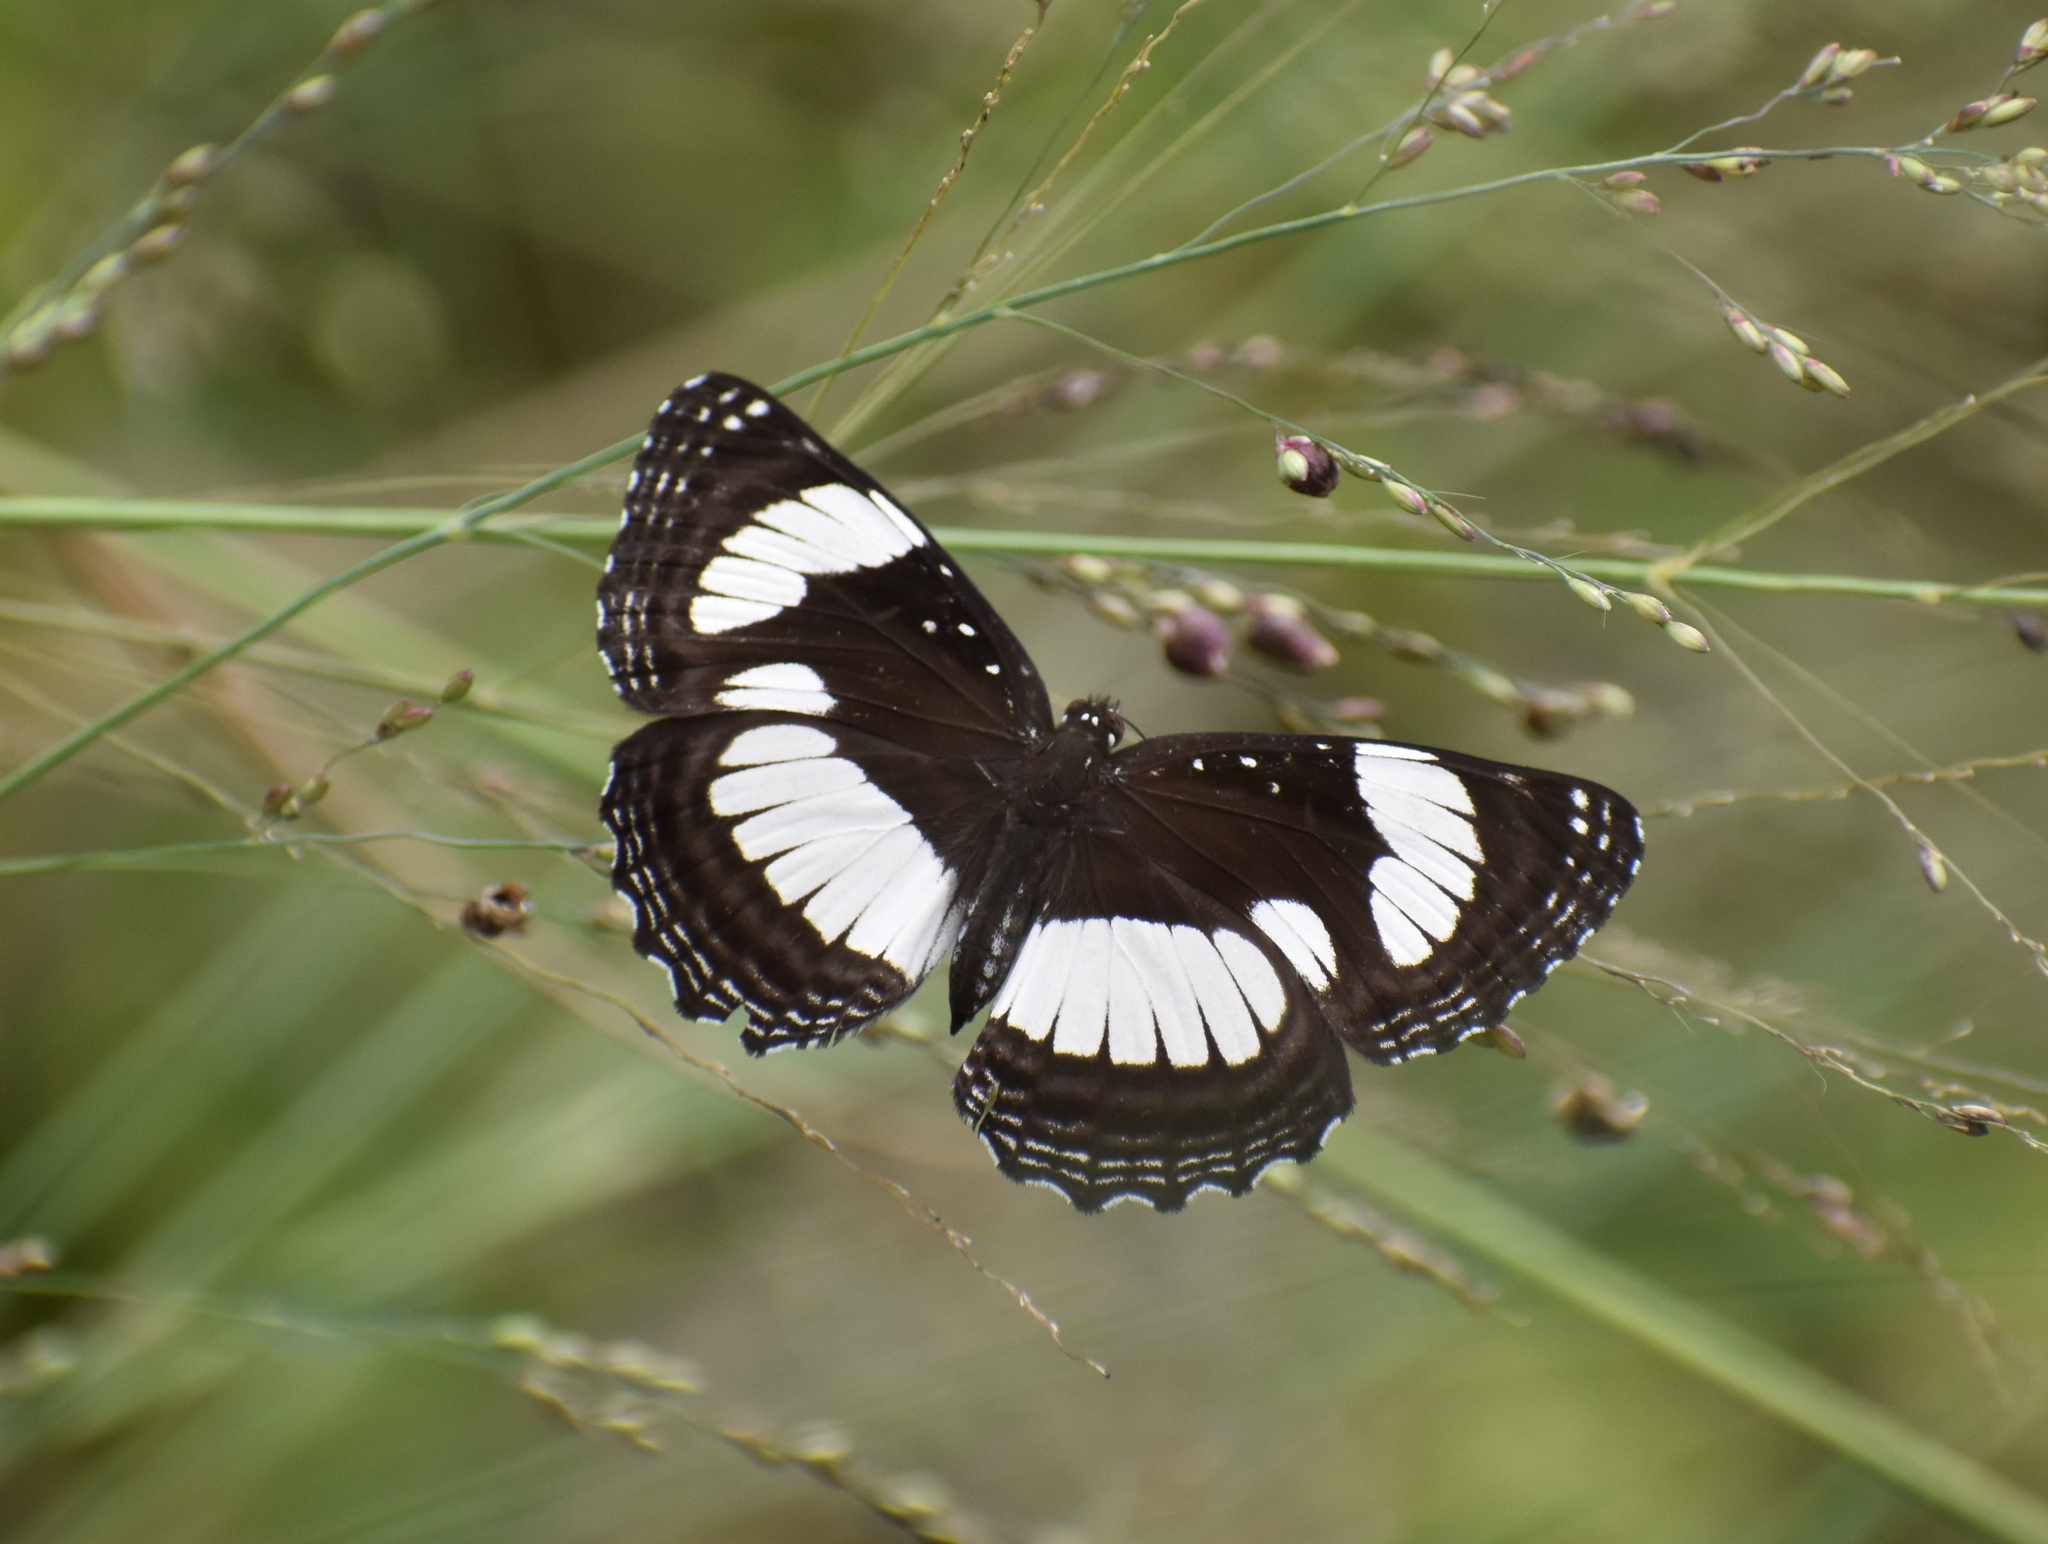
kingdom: Animalia
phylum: Arthropoda
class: Insecta
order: Lepidoptera
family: Nymphalidae
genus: Neptis
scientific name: Neptis laeta
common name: Common barred sailor
